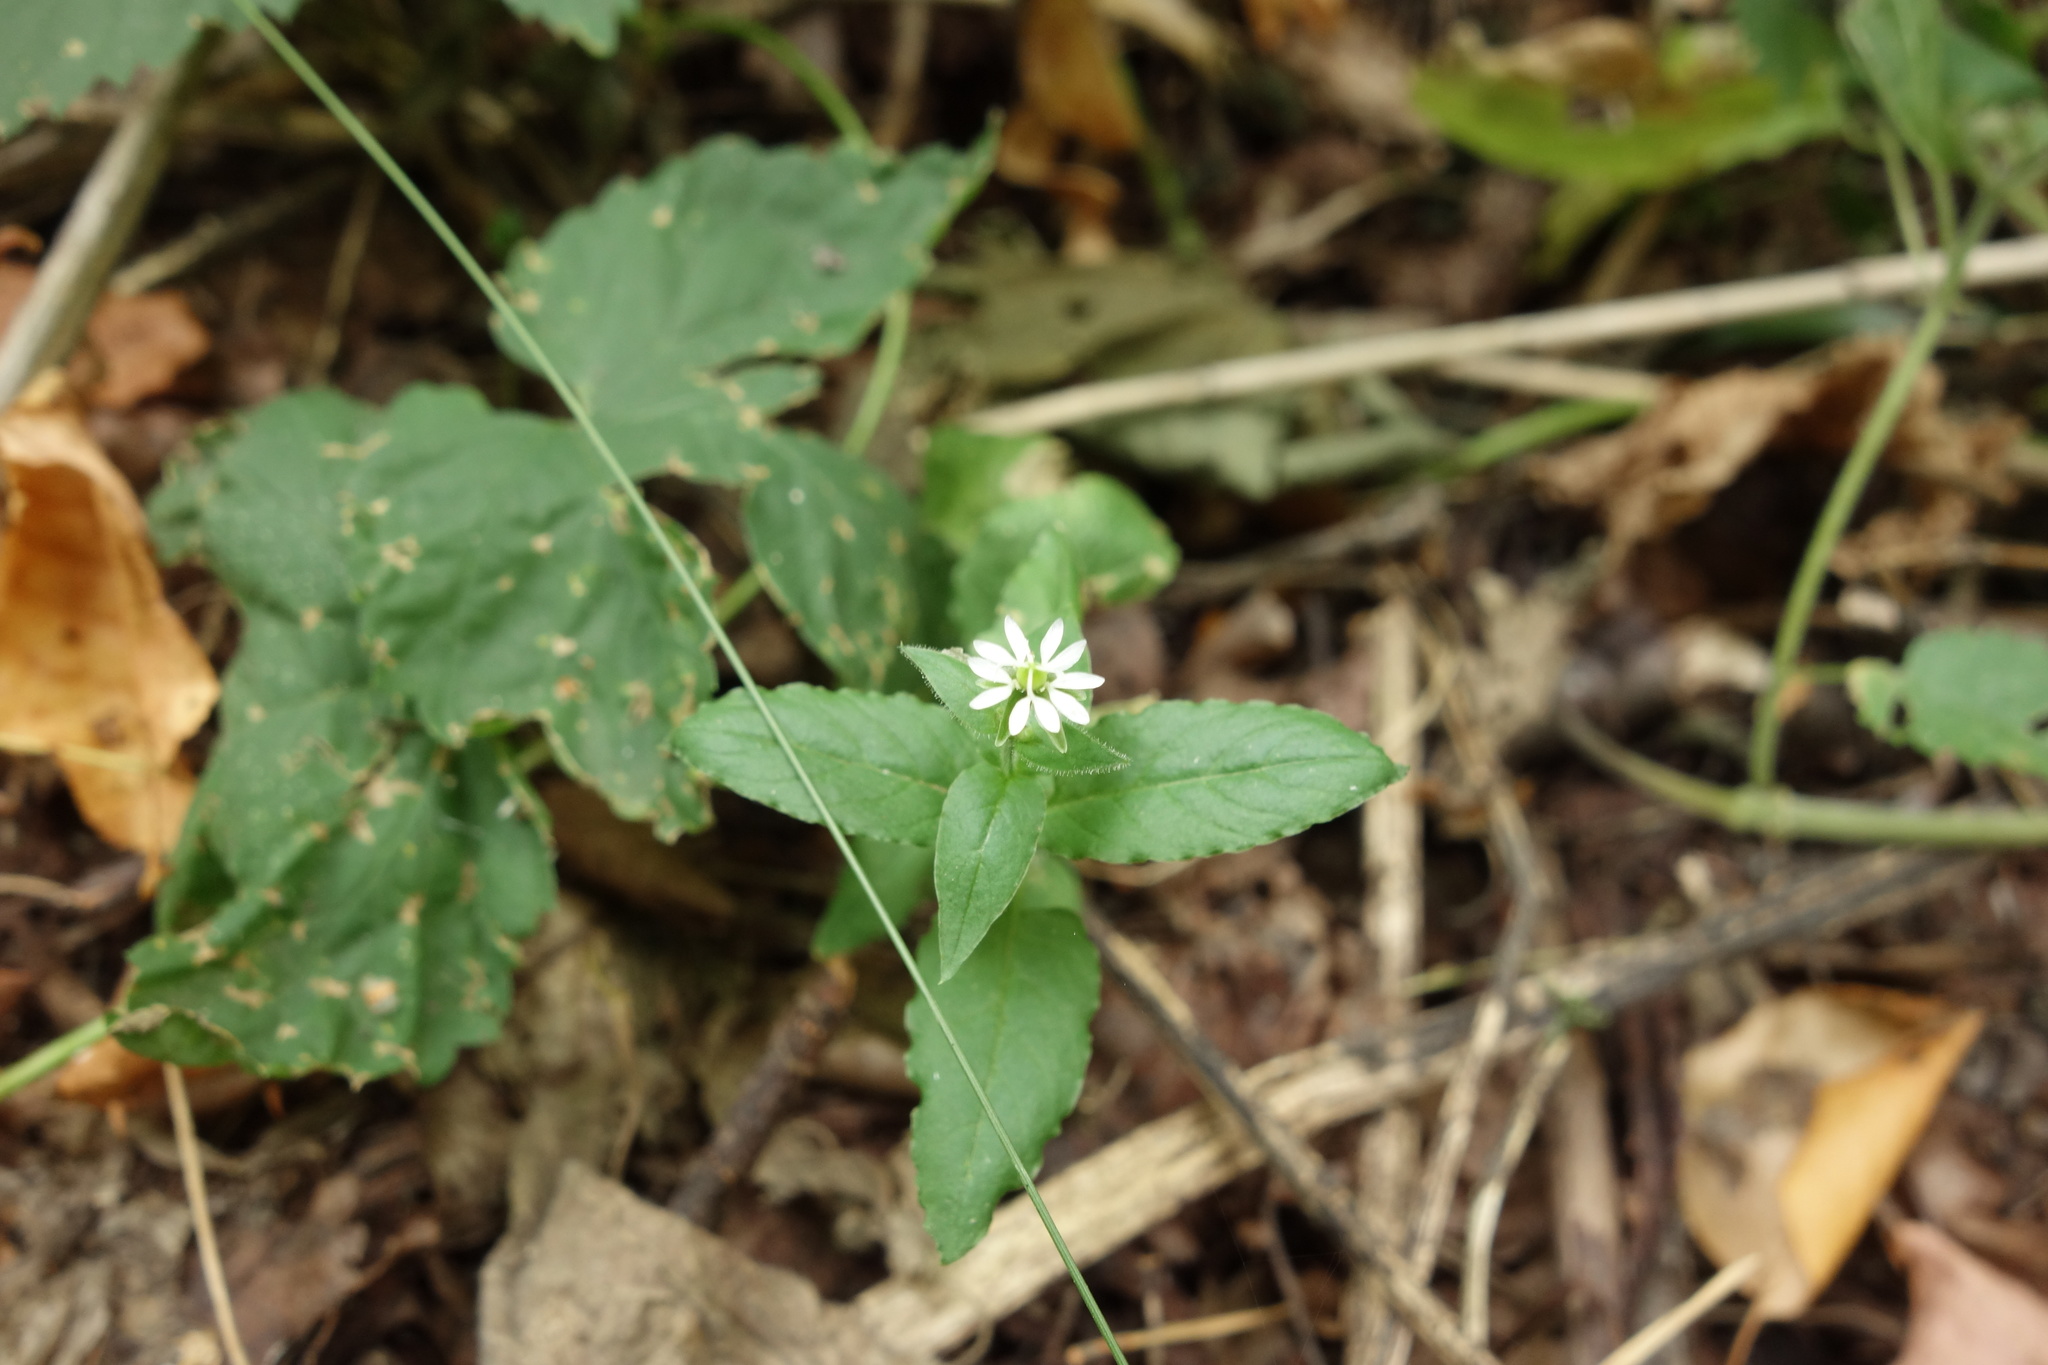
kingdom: Plantae
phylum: Tracheophyta
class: Magnoliopsida
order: Caryophyllales
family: Caryophyllaceae
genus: Stellaria
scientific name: Stellaria aquatica
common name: Water chickweed
